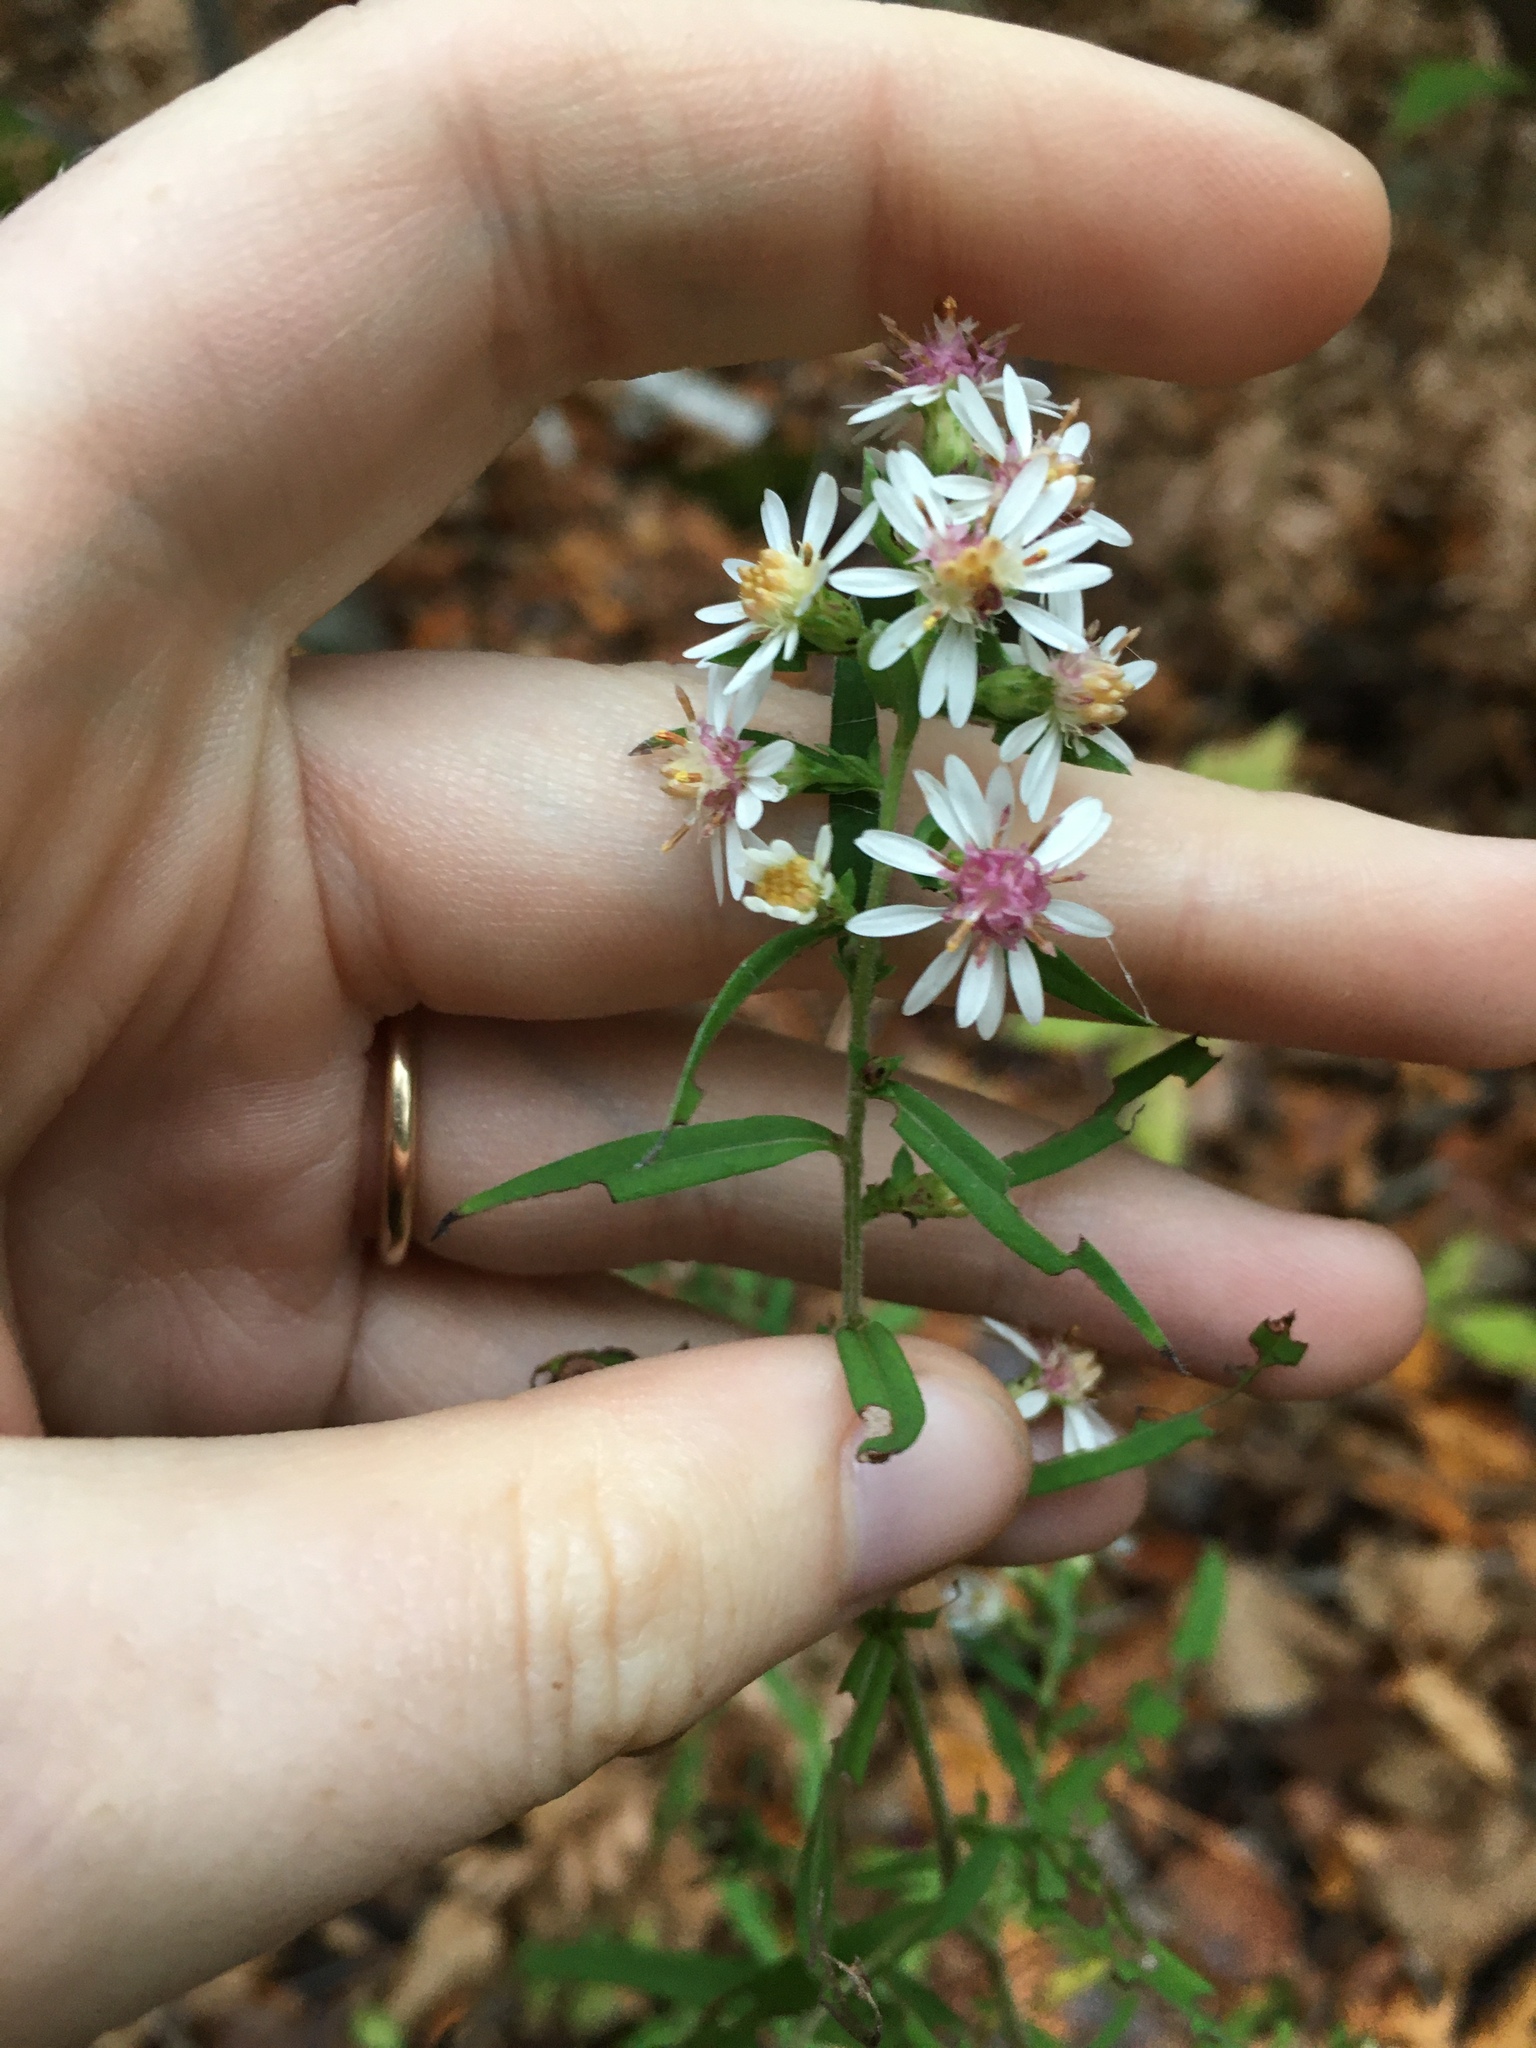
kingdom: Plantae
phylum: Tracheophyta
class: Magnoliopsida
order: Asterales
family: Asteraceae
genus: Symphyotrichum
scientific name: Symphyotrichum lateriflorum
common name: Calico aster
